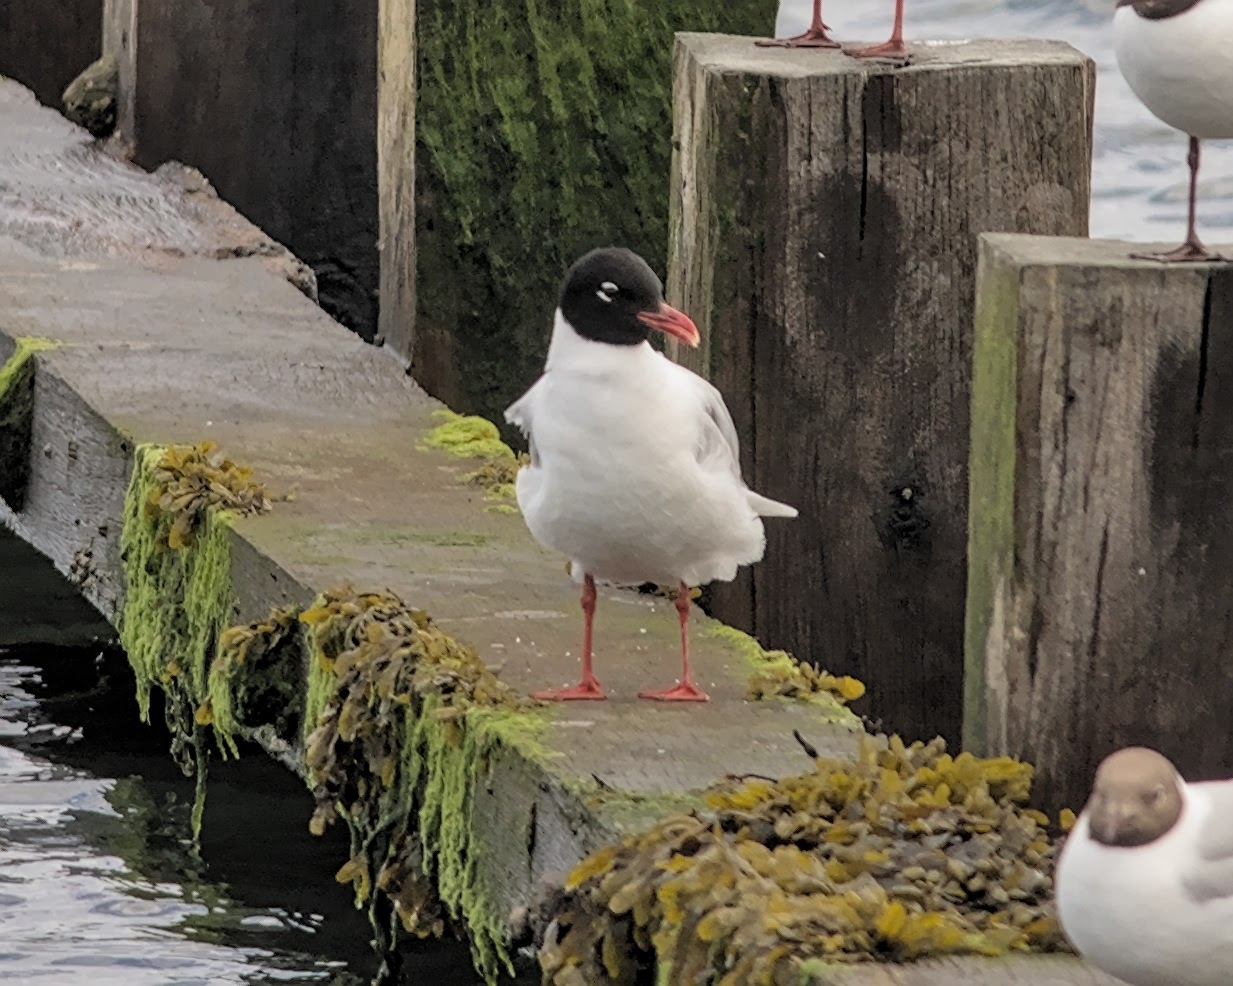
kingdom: Animalia
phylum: Chordata
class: Aves
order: Charadriiformes
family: Laridae
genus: Ichthyaetus
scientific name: Ichthyaetus melanocephalus
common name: Mediterranean gull
